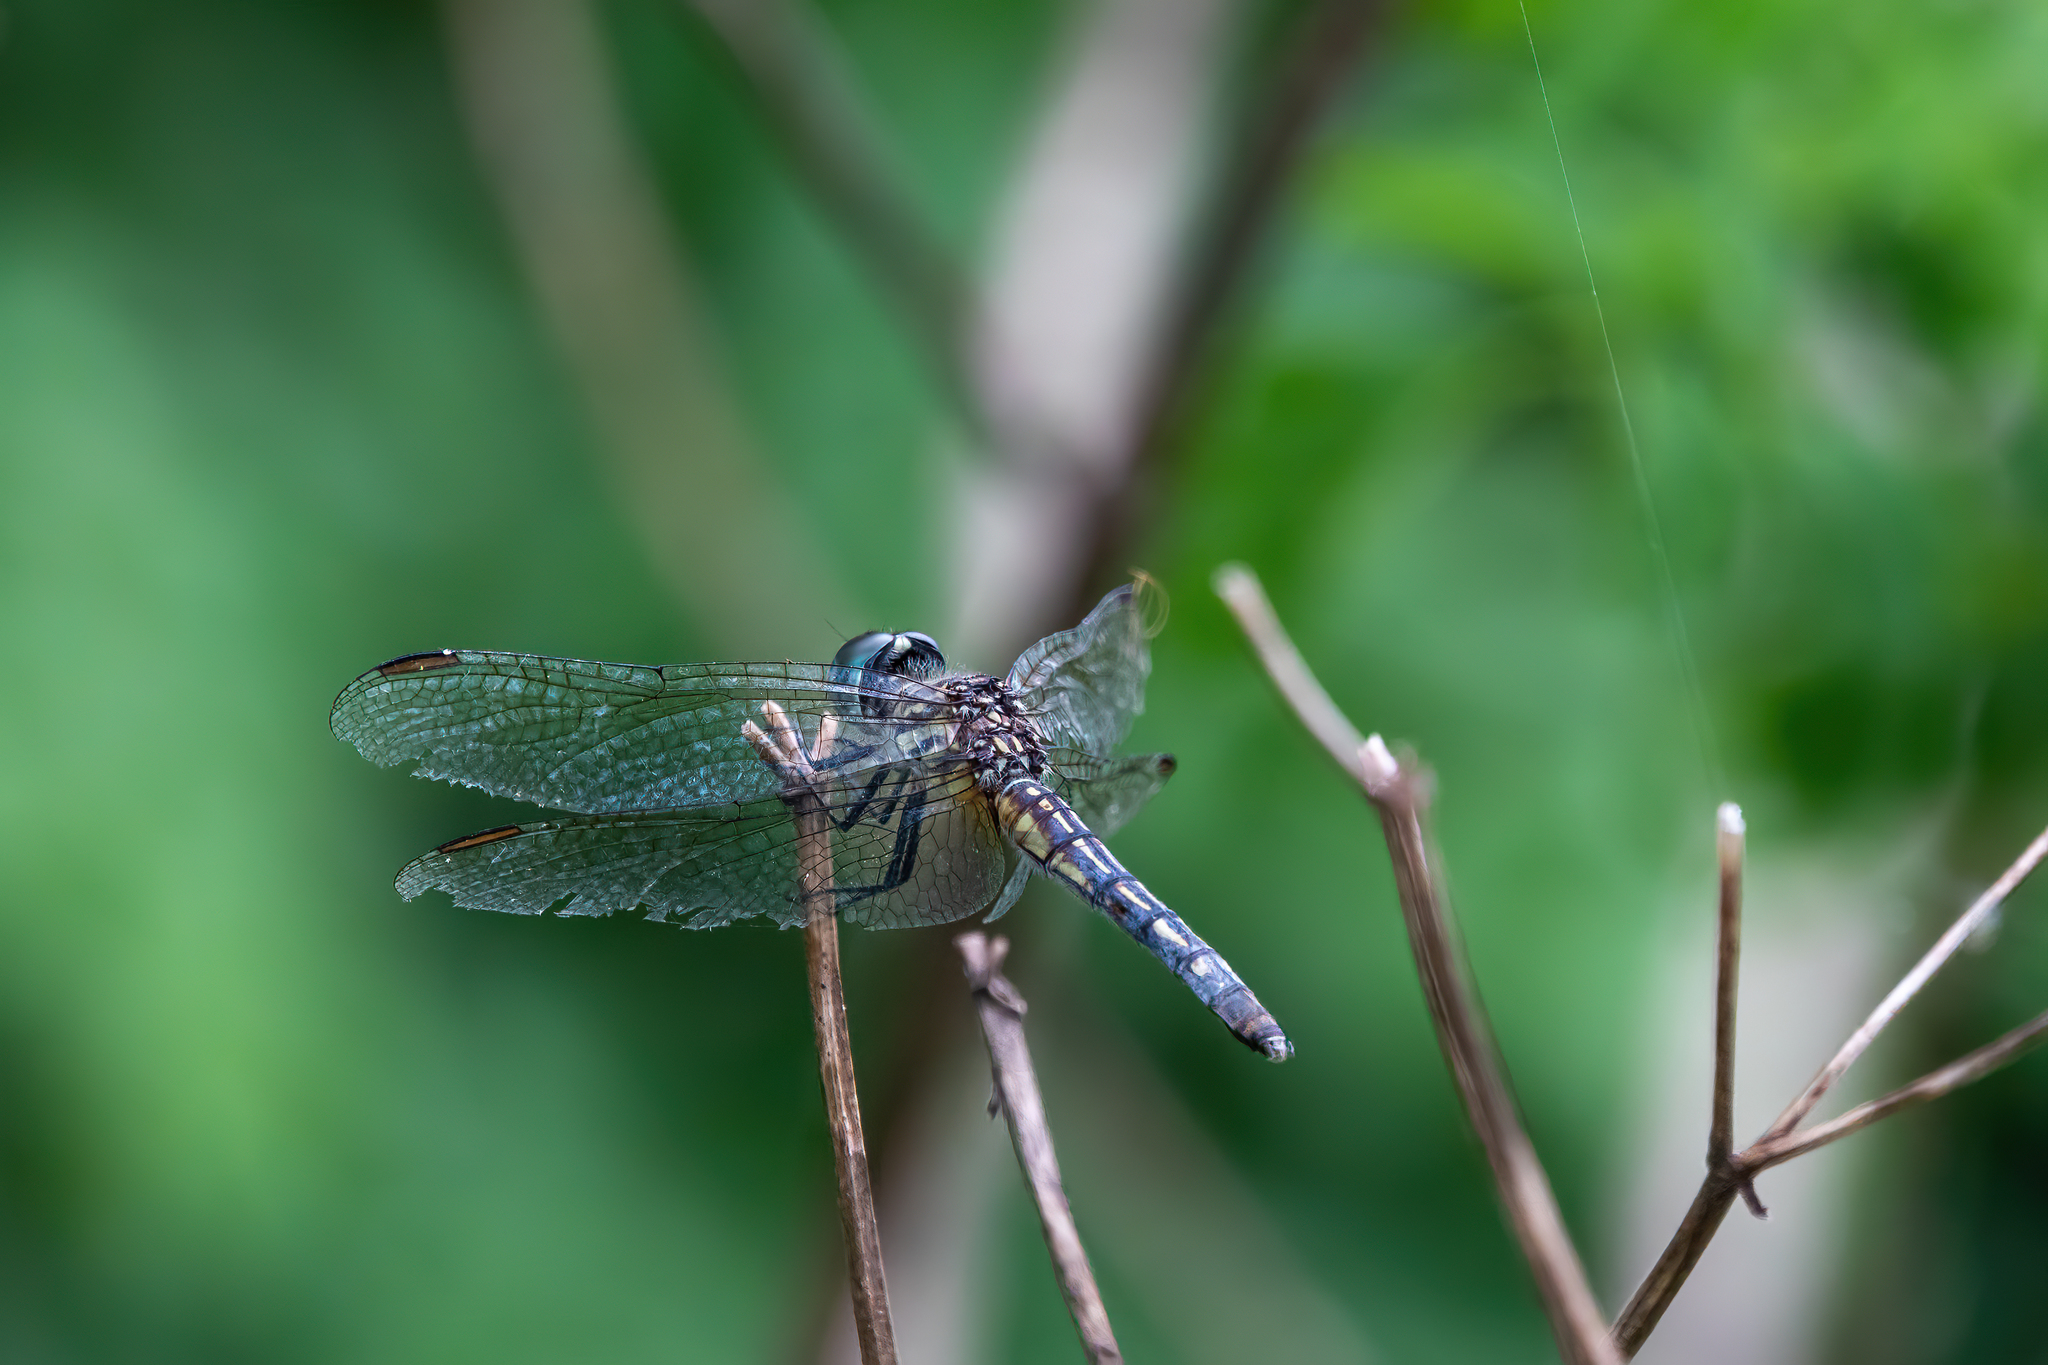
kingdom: Animalia
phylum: Arthropoda
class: Insecta
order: Odonata
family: Libellulidae
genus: Pachydiplax
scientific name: Pachydiplax longipennis
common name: Blue dasher
